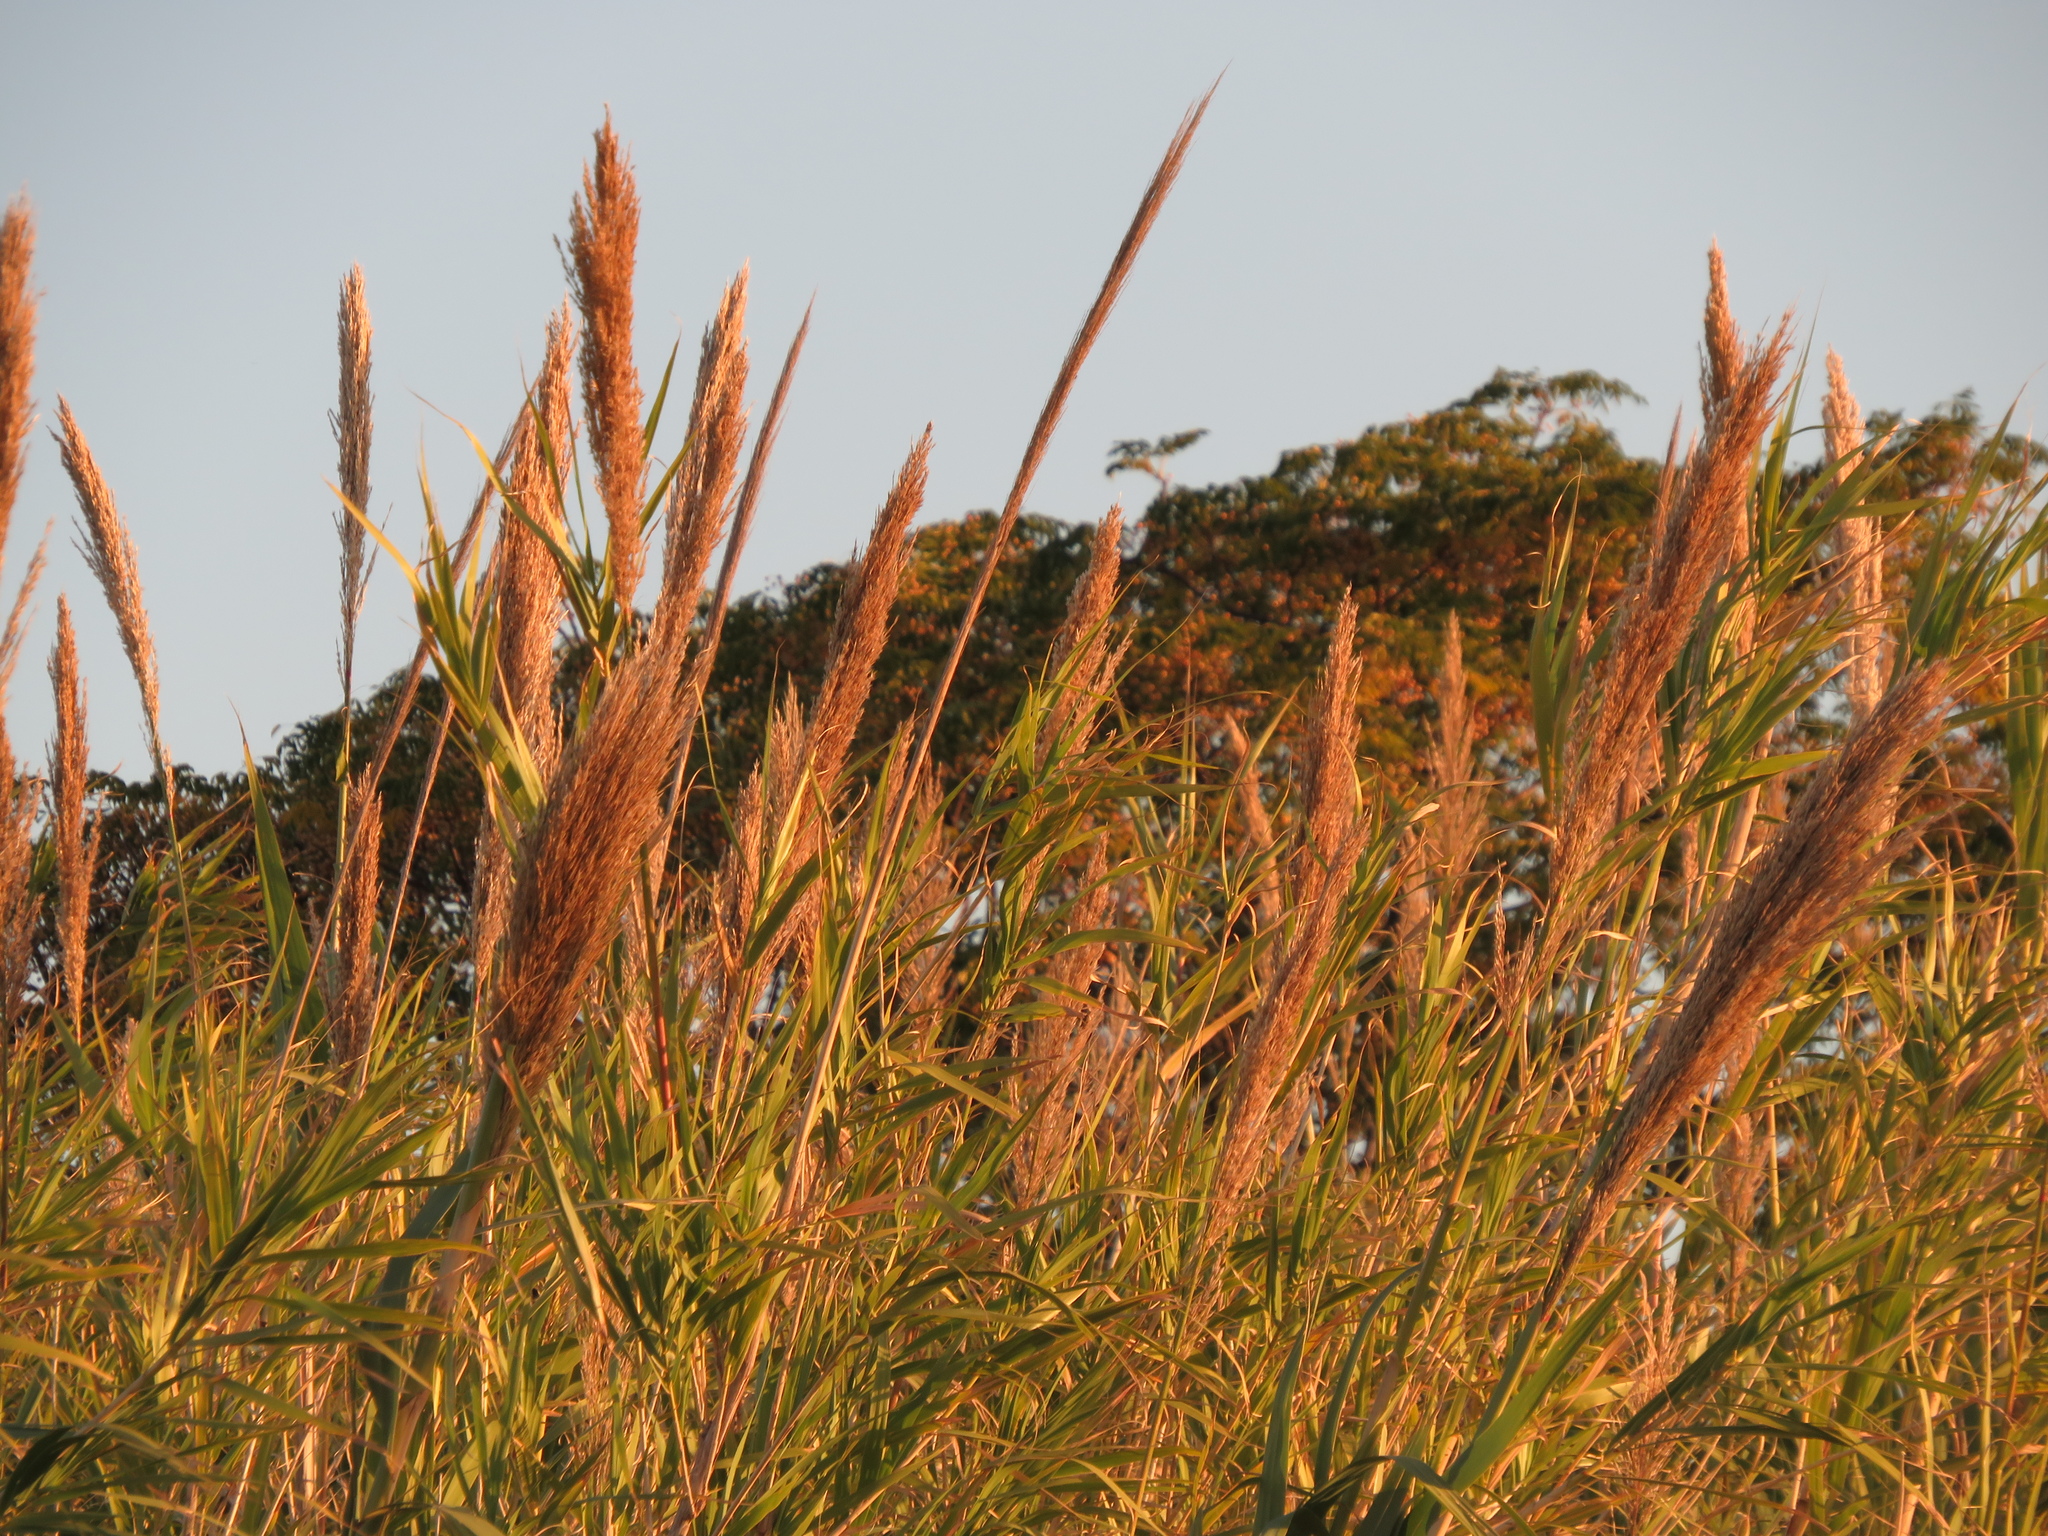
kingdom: Plantae
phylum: Tracheophyta
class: Liliopsida
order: Poales
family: Poaceae
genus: Arundo
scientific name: Arundo donax
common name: Giant reed
